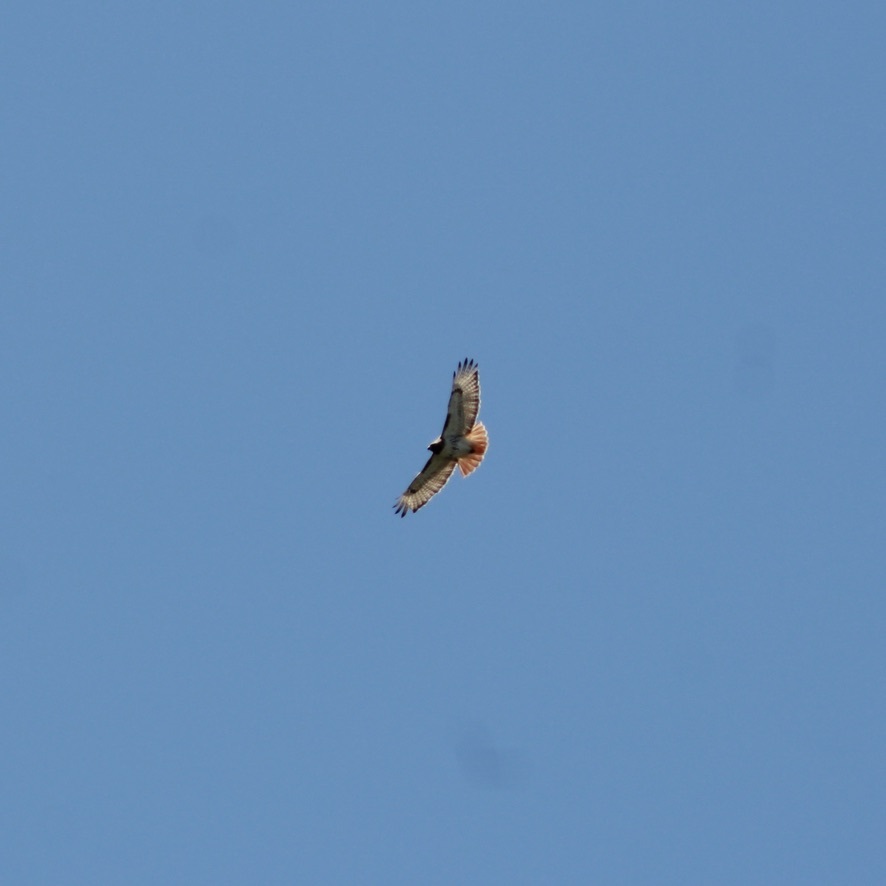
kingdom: Animalia
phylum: Chordata
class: Aves
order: Accipitriformes
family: Accipitridae
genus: Buteo
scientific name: Buteo jamaicensis
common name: Red-tailed hawk
